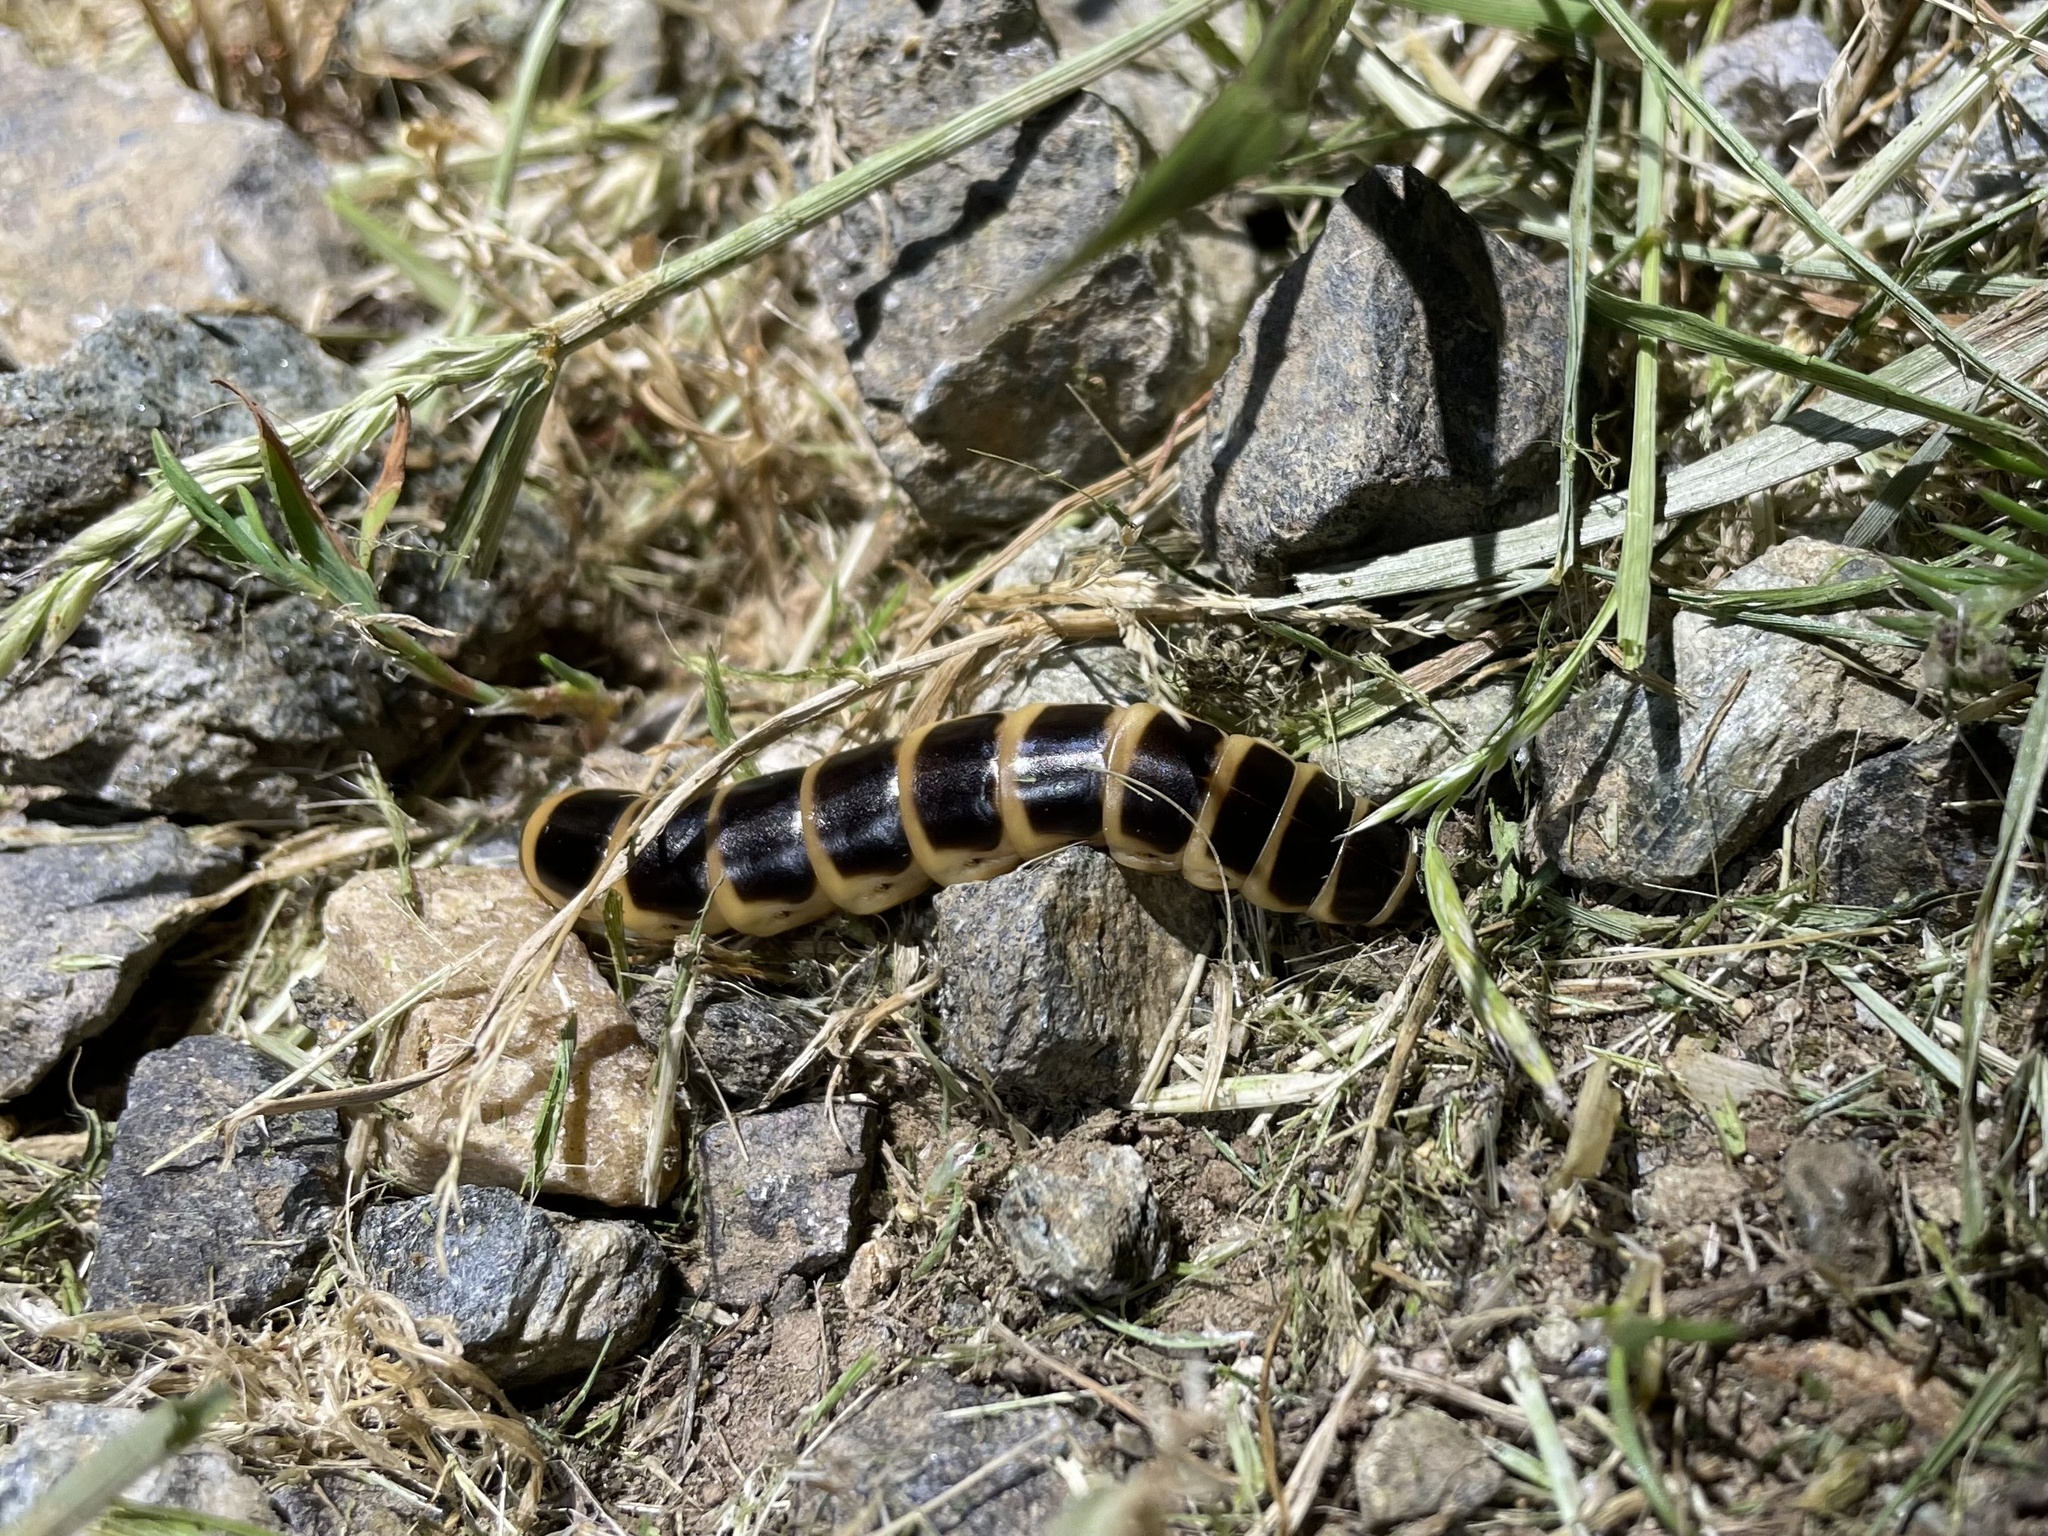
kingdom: Animalia
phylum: Arthropoda
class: Insecta
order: Coleoptera
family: Phengodidae
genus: Zarhipis
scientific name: Zarhipis integripennis
